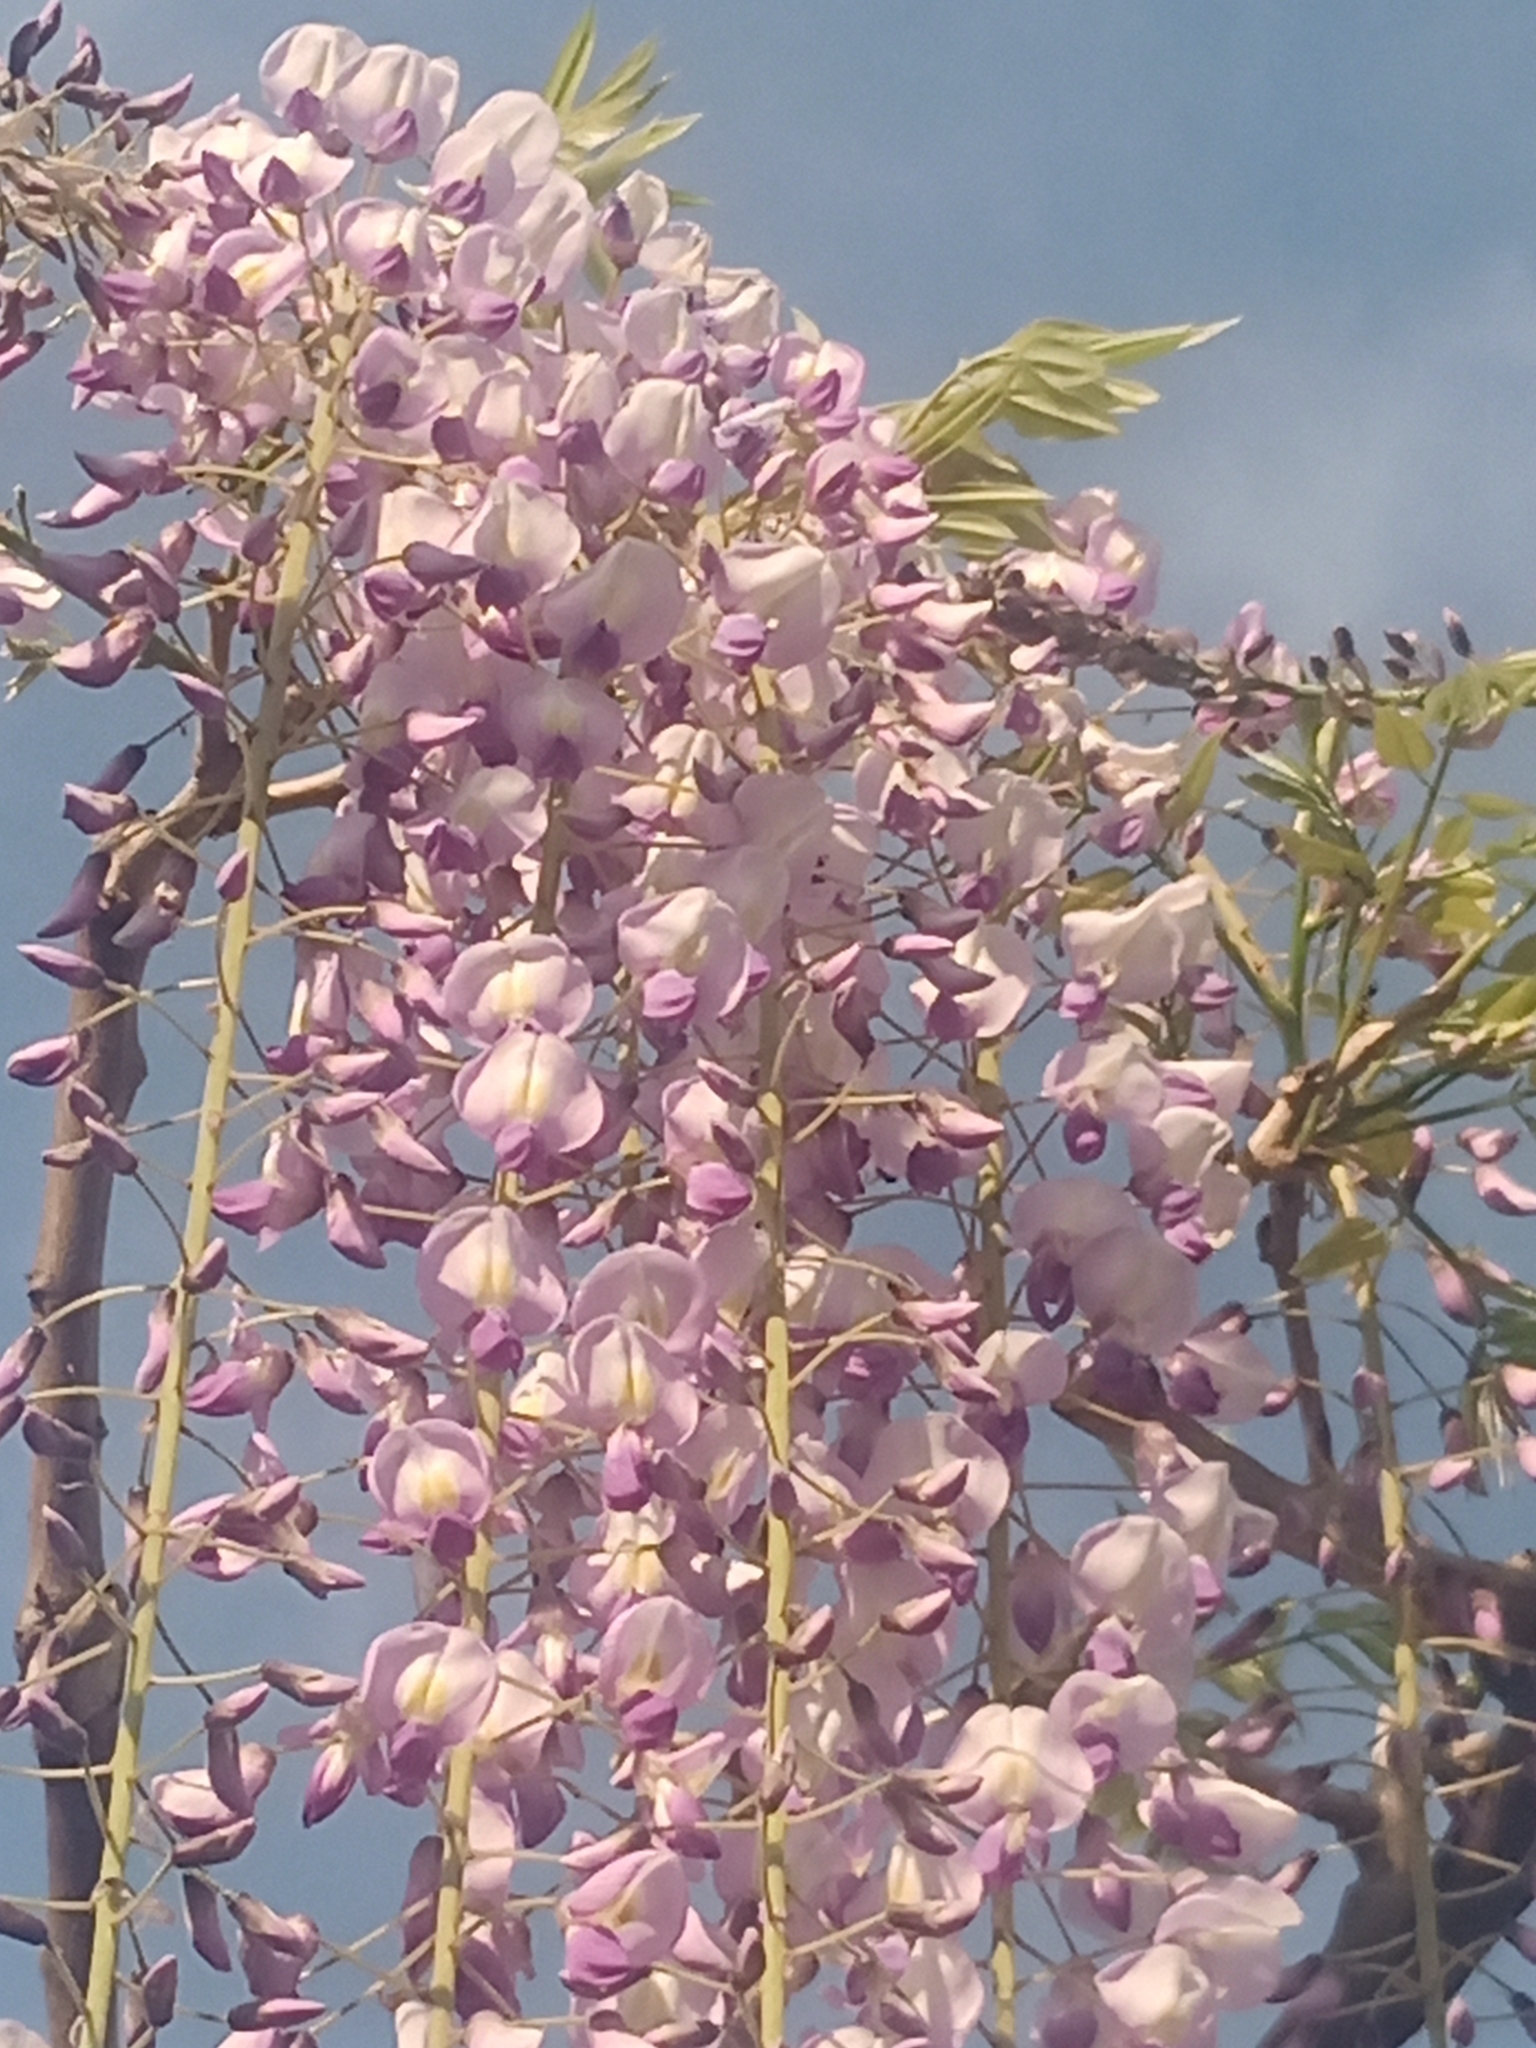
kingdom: Plantae
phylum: Tracheophyta
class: Magnoliopsida
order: Fabales
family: Fabaceae
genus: Wisteria
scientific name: Wisteria sinensis
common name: Chinese wisteria
